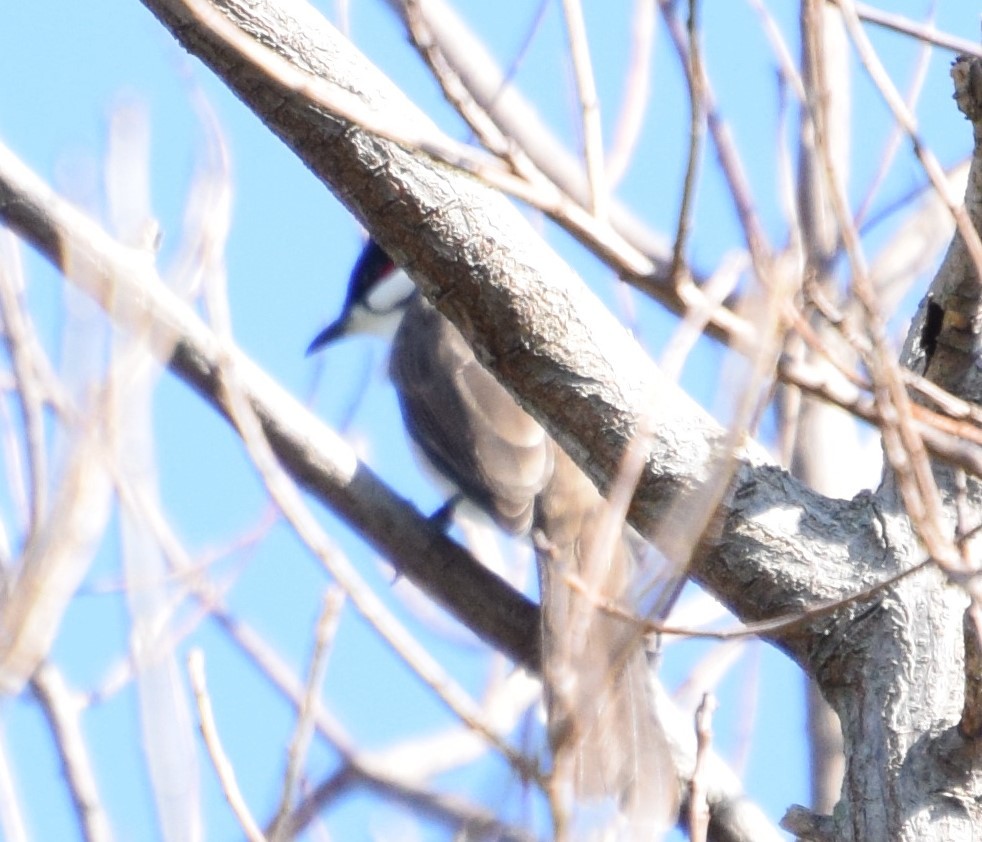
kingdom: Animalia
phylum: Chordata
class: Aves
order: Passeriformes
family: Pycnonotidae
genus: Pycnonotus
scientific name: Pycnonotus jocosus
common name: Red-whiskered bulbul
